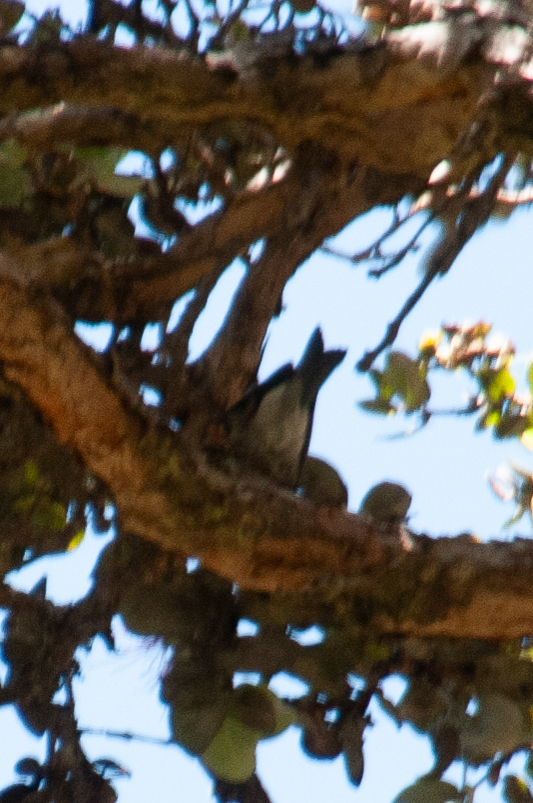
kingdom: Animalia
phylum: Chordata
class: Aves
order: Passeriformes
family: Fringillidae
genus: Himatione
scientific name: Himatione sanguinea
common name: Apapane
